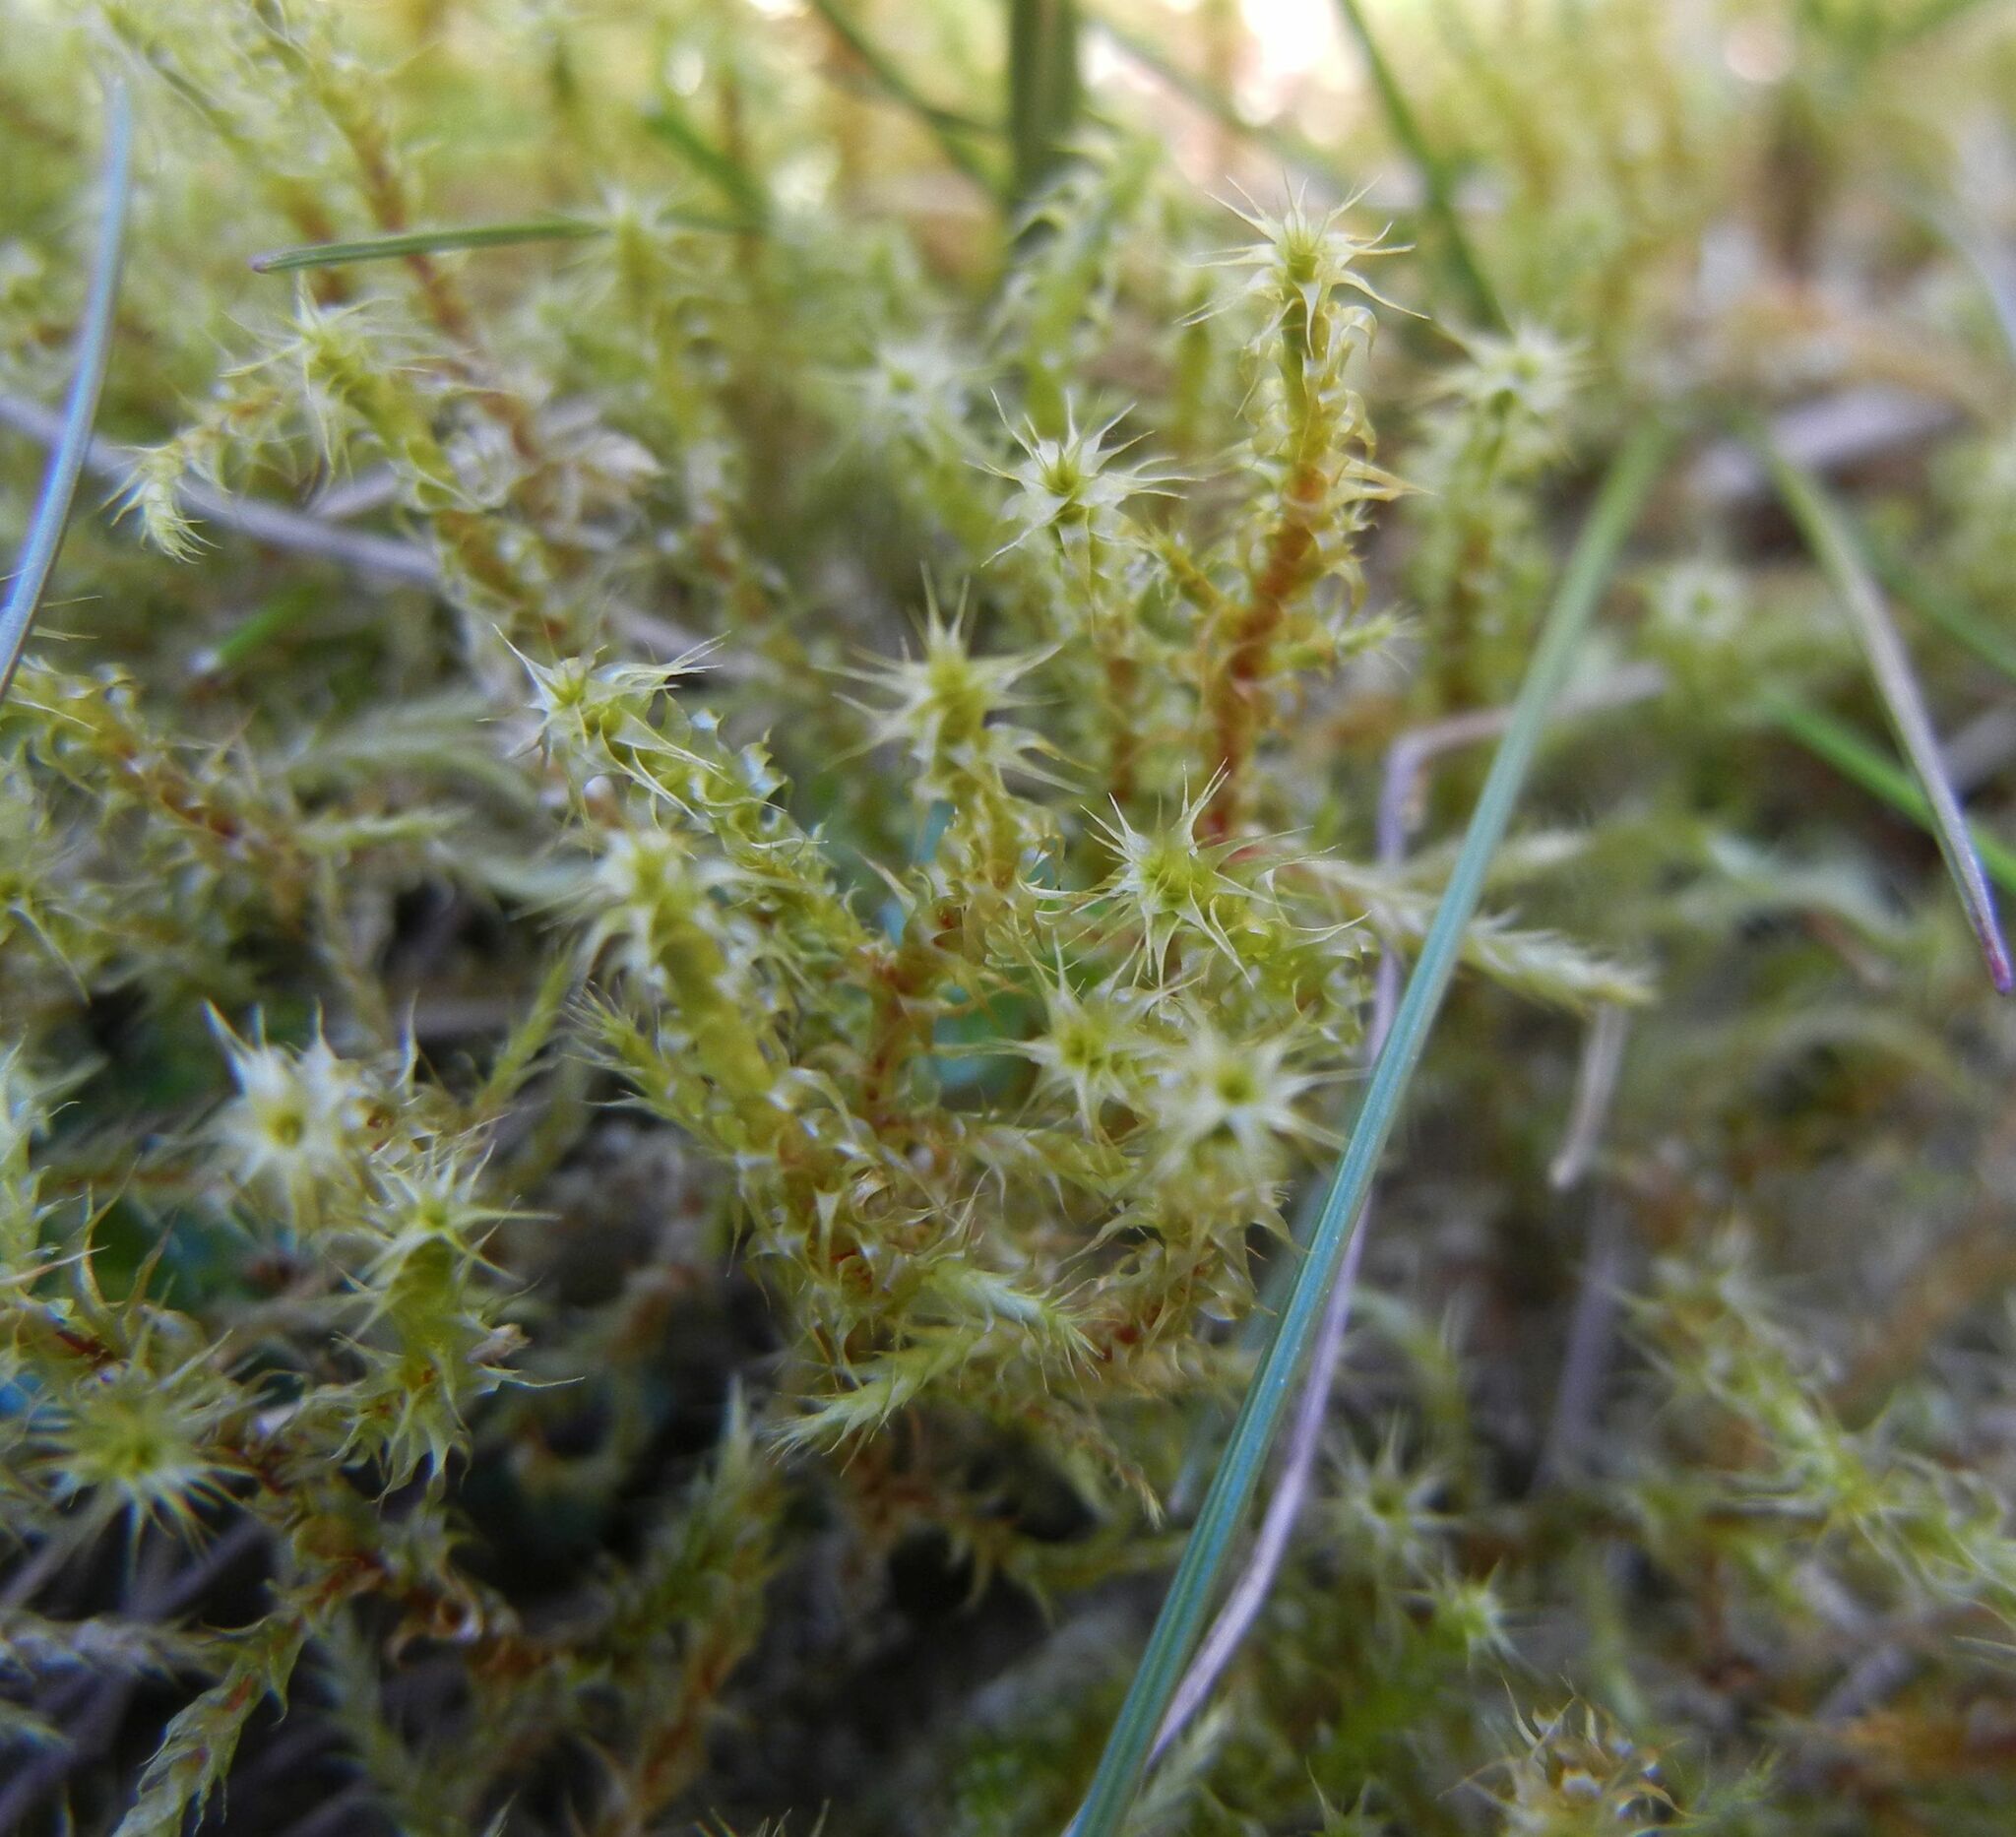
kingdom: Plantae
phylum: Bryophyta
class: Bryopsida
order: Hypnales
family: Hylocomiaceae
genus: Rhytidiadelphus
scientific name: Rhytidiadelphus squarrosus
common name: Springy turf-moss
